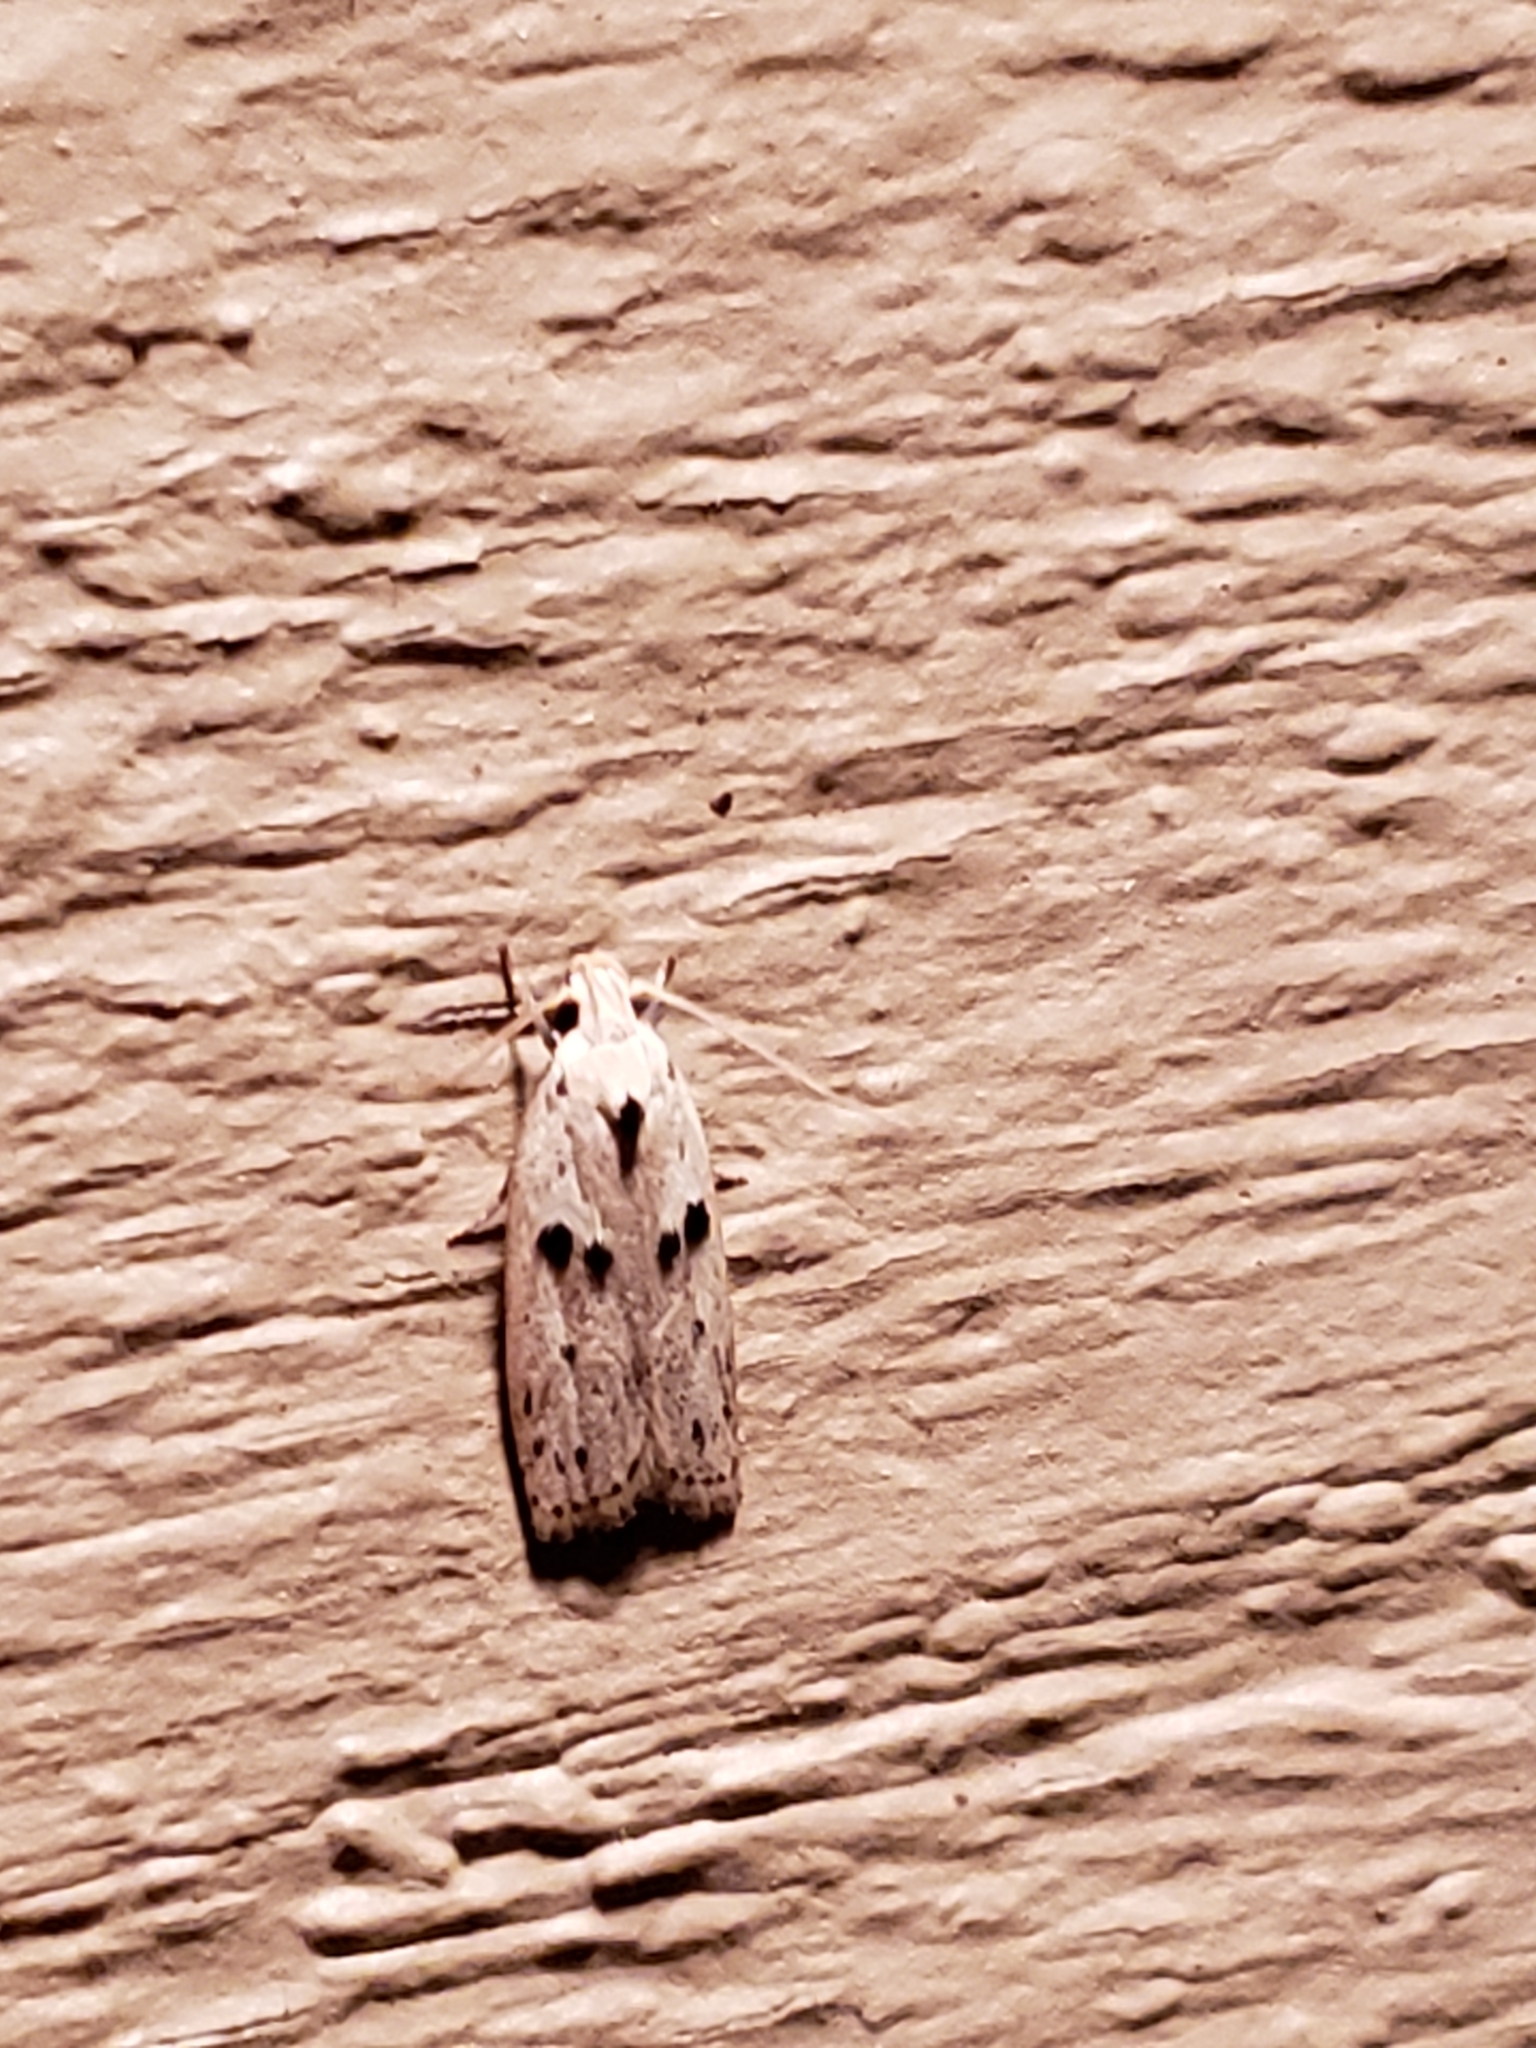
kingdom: Animalia
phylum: Arthropoda
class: Insecta
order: Lepidoptera
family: Peleopodidae
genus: Scythropiodes
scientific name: Scythropiodes issikii
